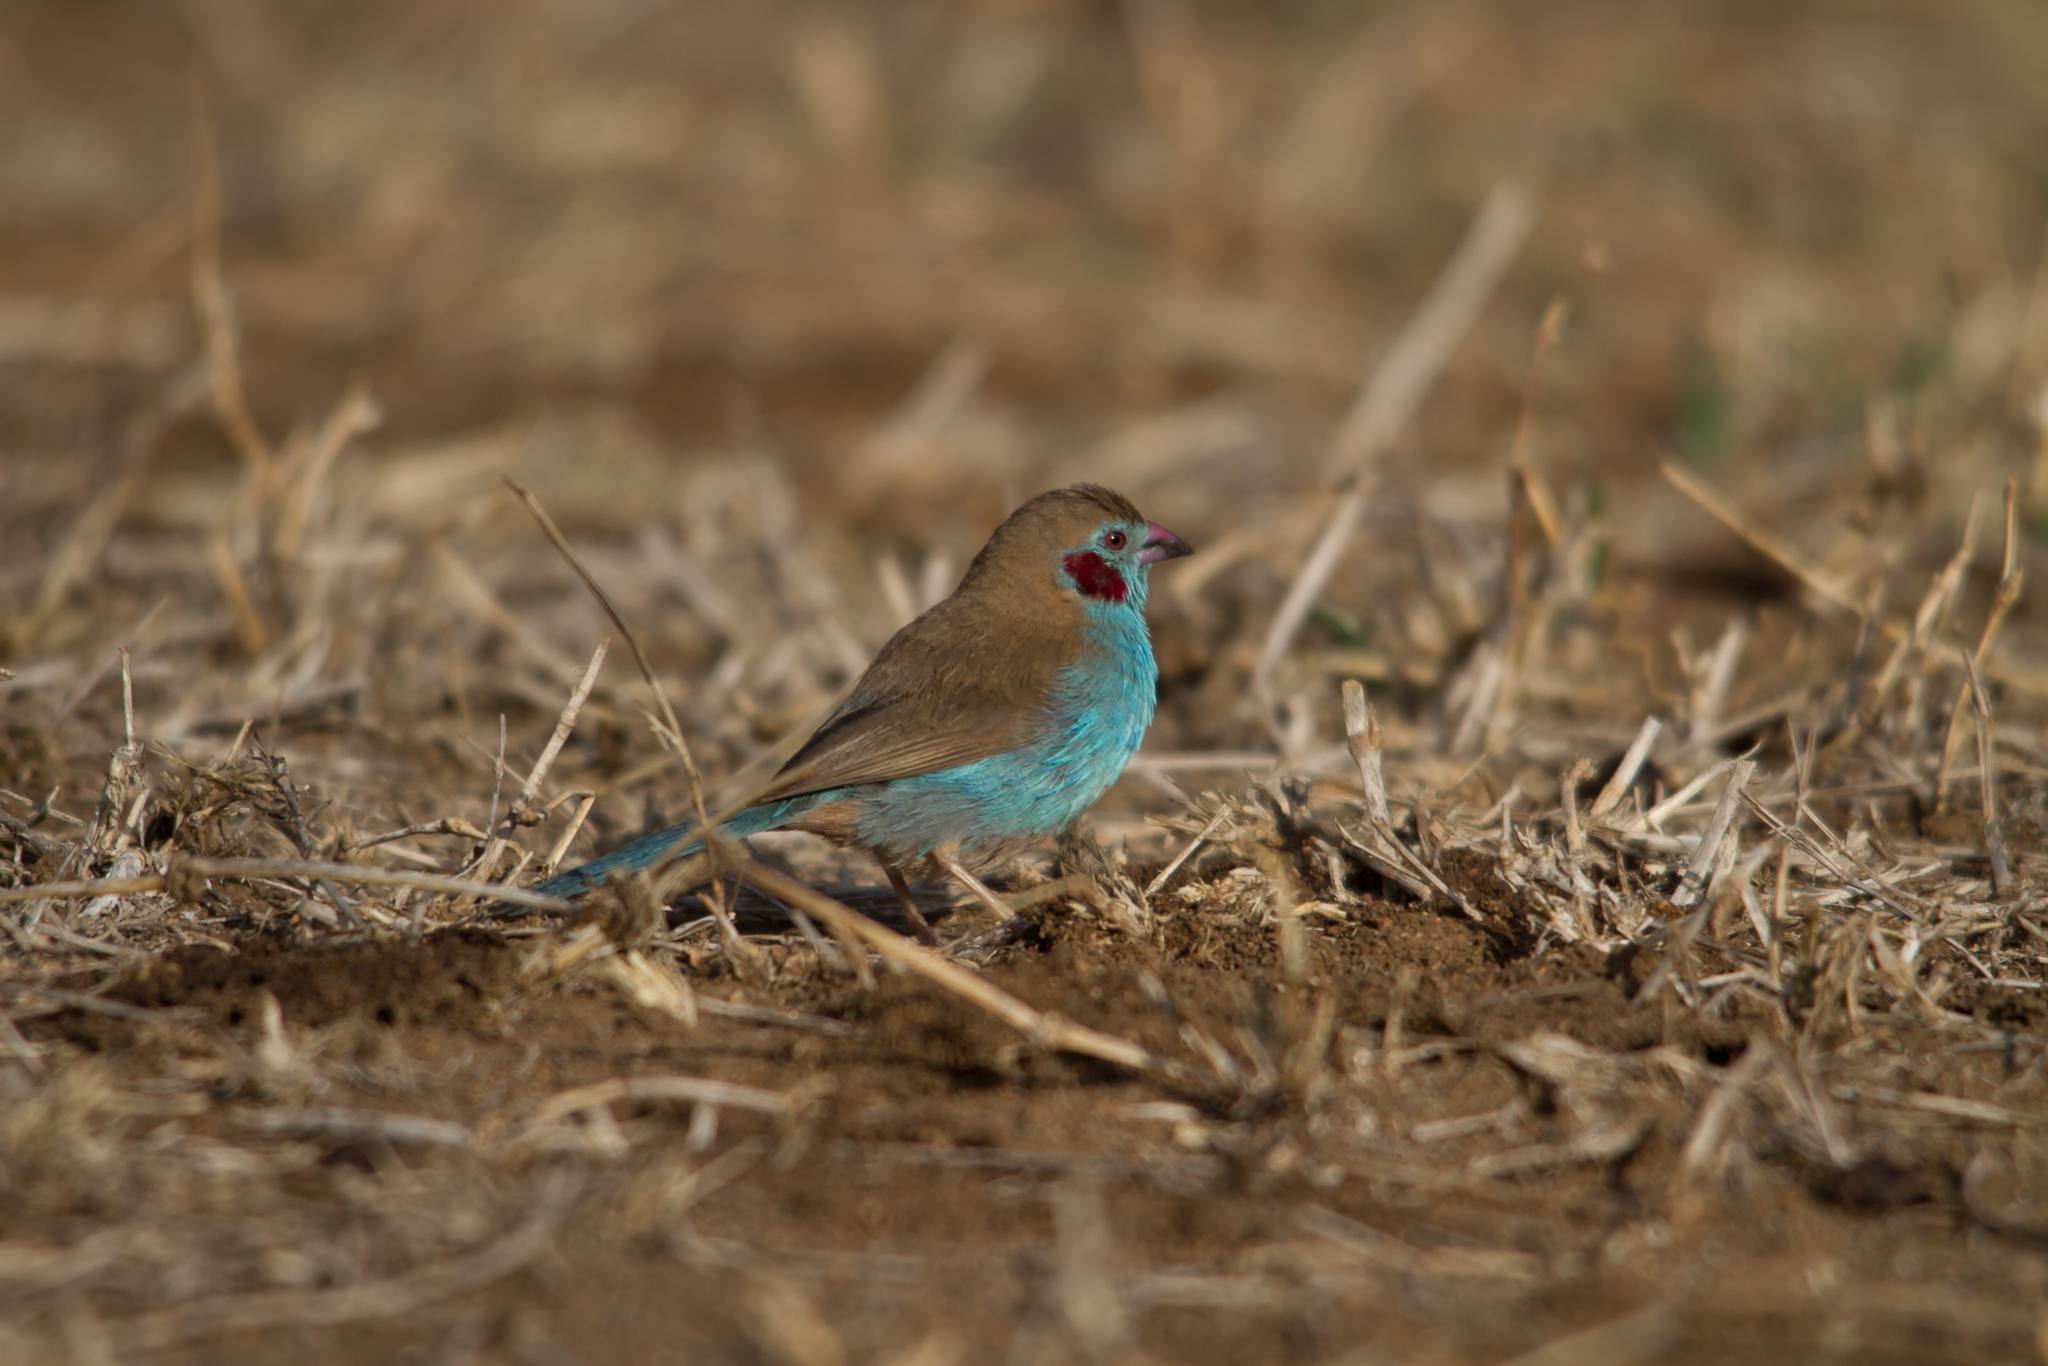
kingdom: Animalia
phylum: Chordata
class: Aves
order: Passeriformes
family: Estrildidae
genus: Uraeginthus
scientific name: Uraeginthus bengalus
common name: Red-cheeked cordon-bleu
